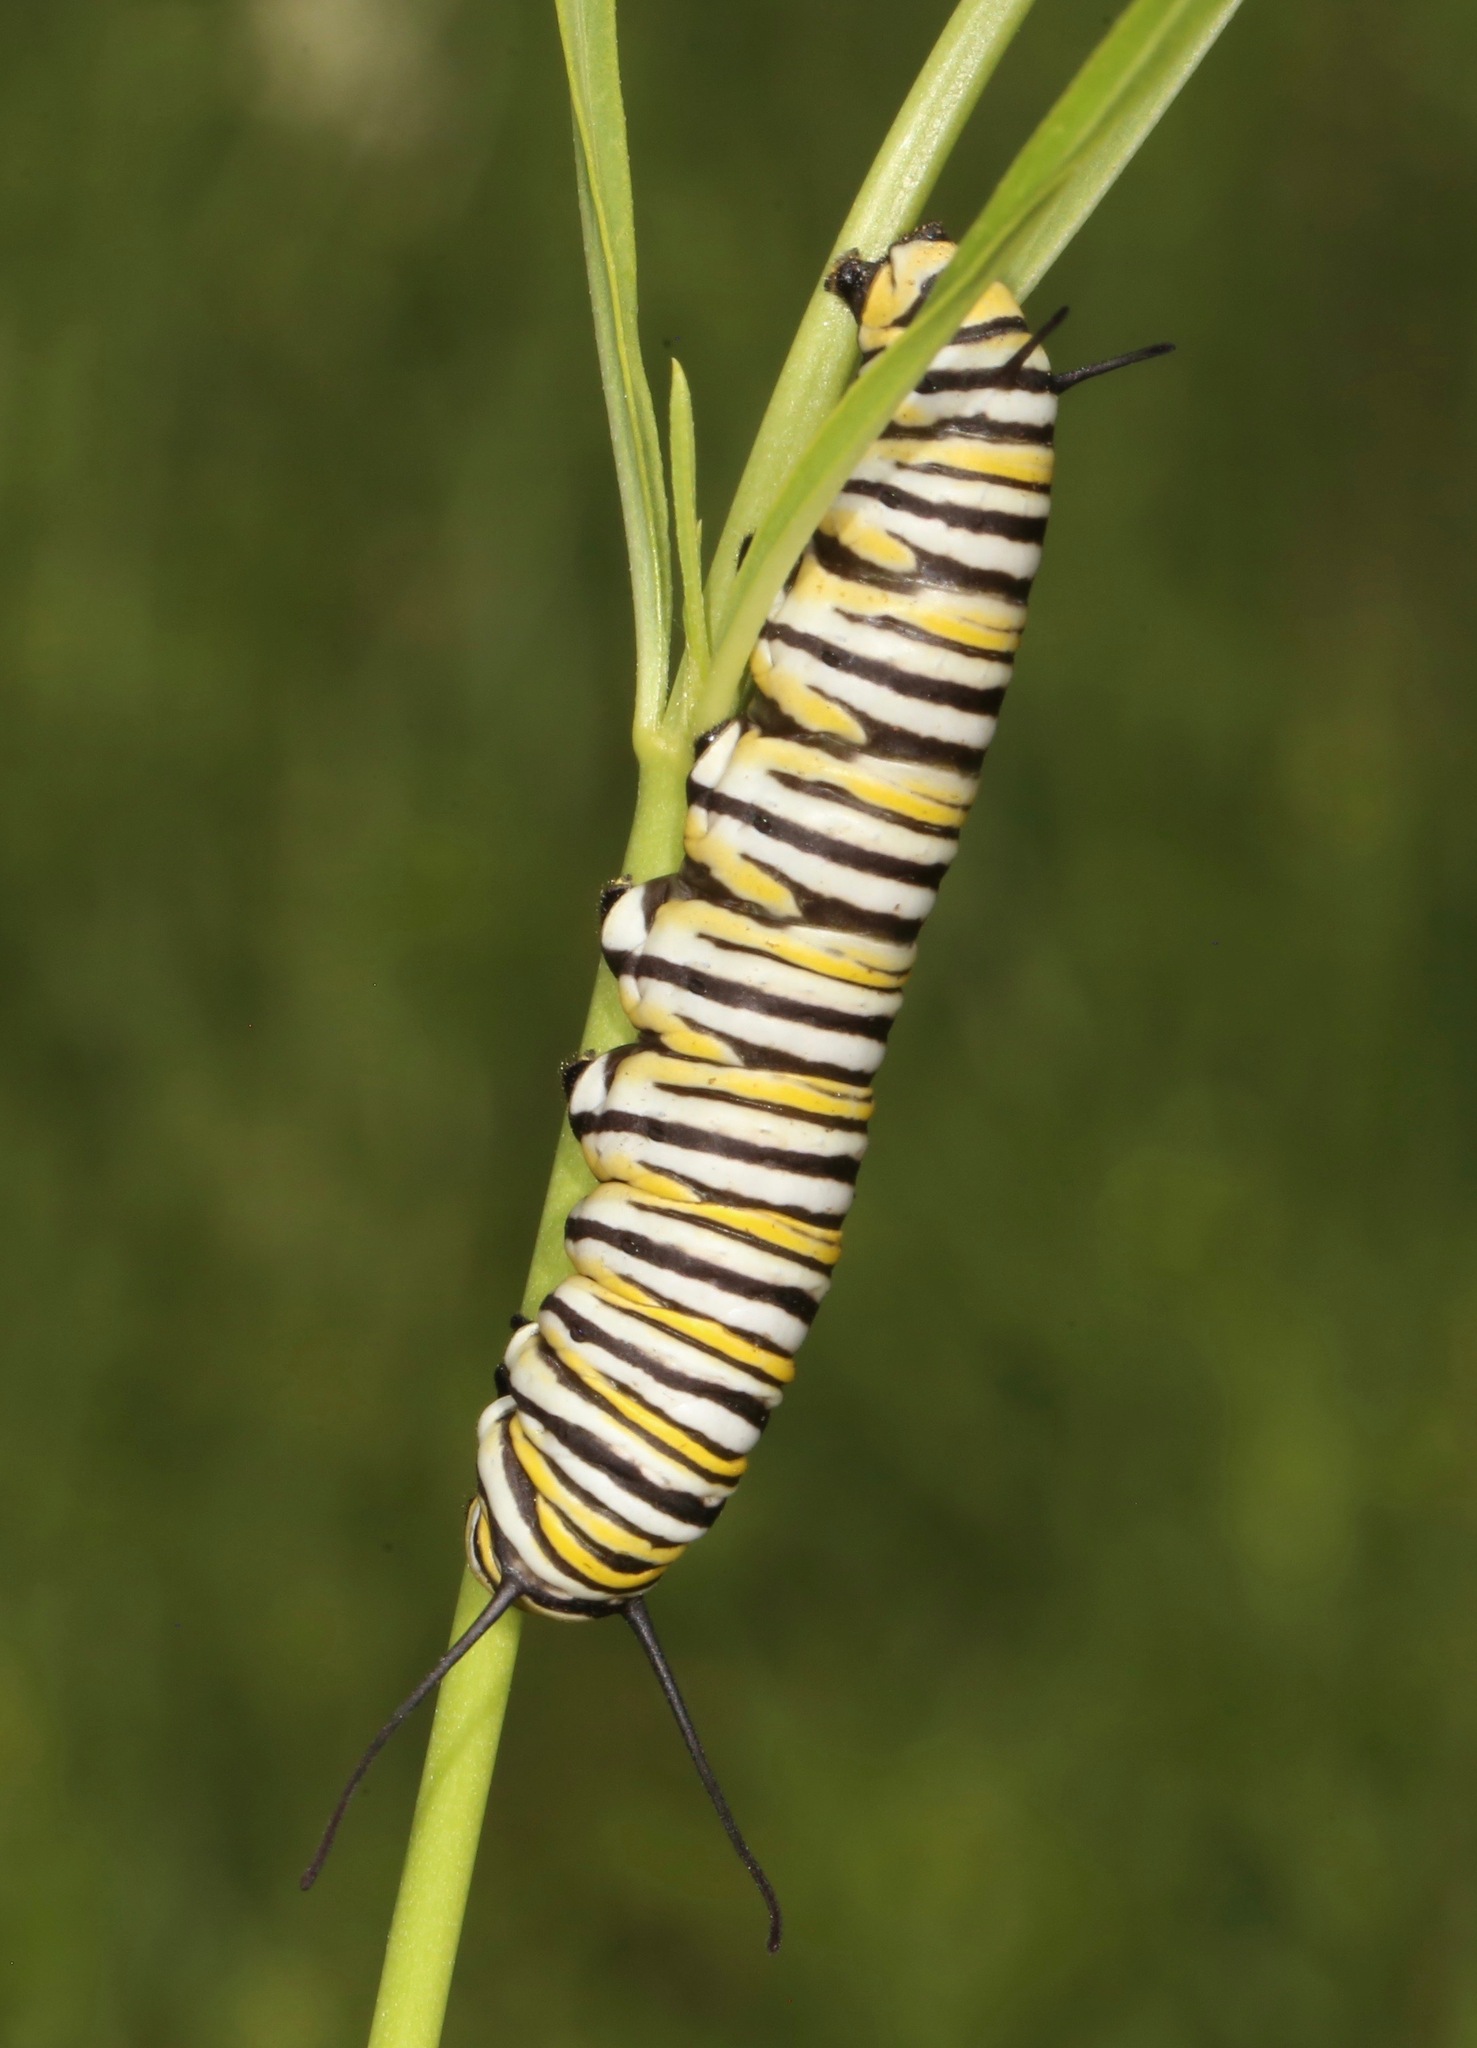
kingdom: Animalia
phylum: Arthropoda
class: Insecta
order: Lepidoptera
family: Nymphalidae
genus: Danaus
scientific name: Danaus plexippus
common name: Monarch
